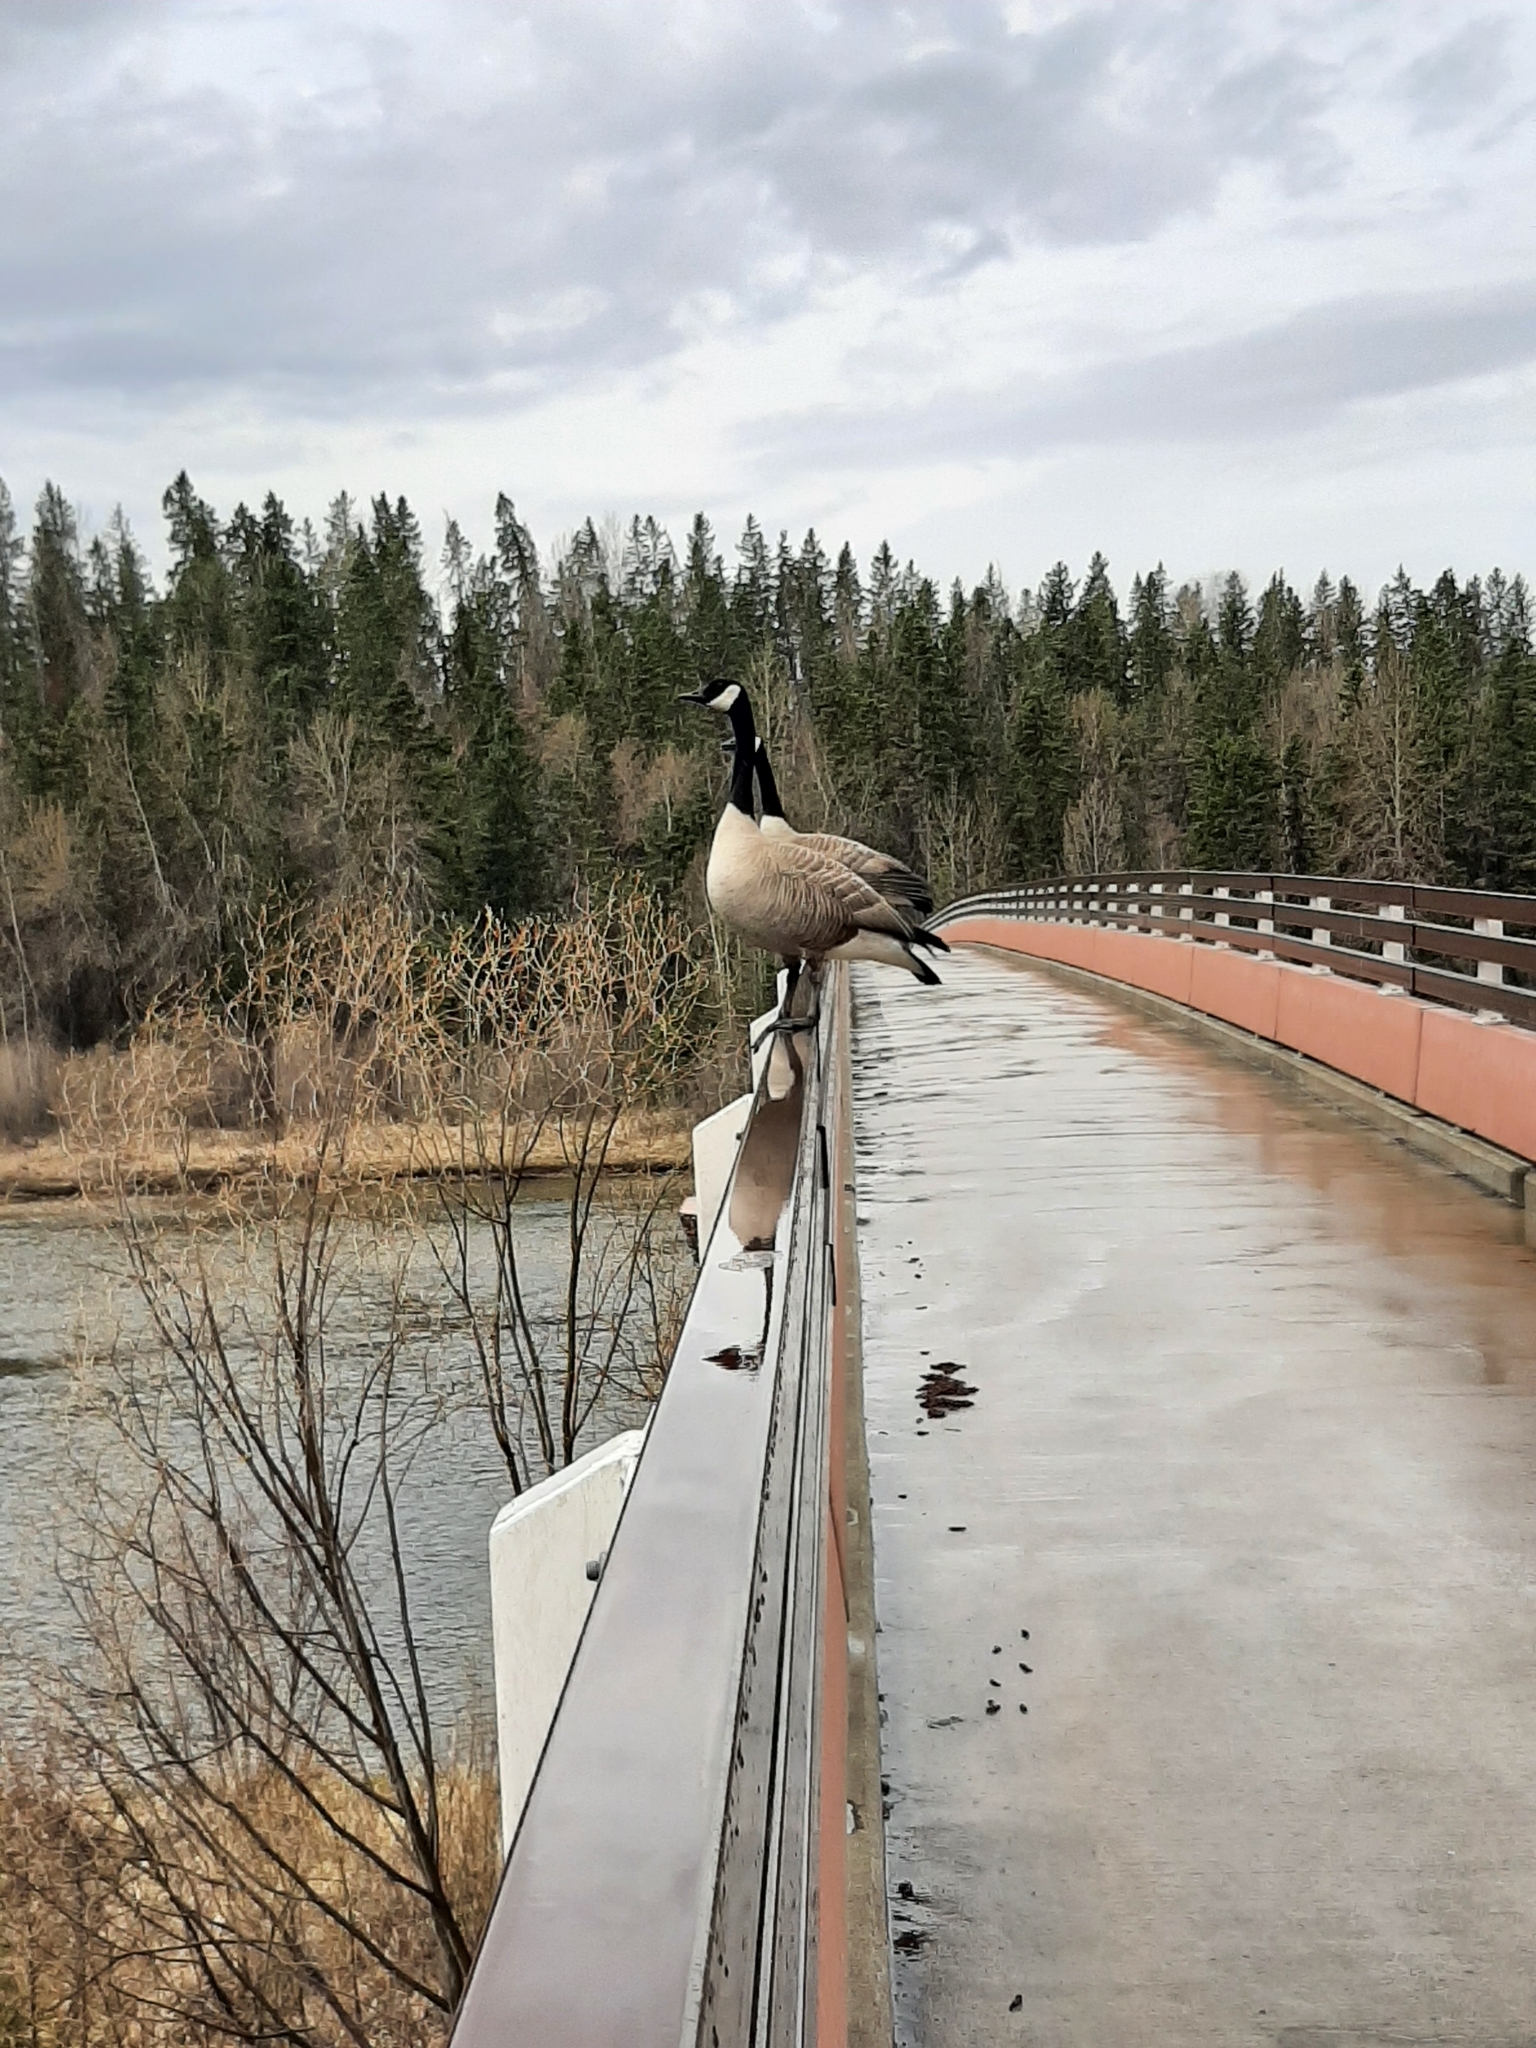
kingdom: Animalia
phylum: Chordata
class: Aves
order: Anseriformes
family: Anatidae
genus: Branta
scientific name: Branta canadensis
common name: Canada goose
